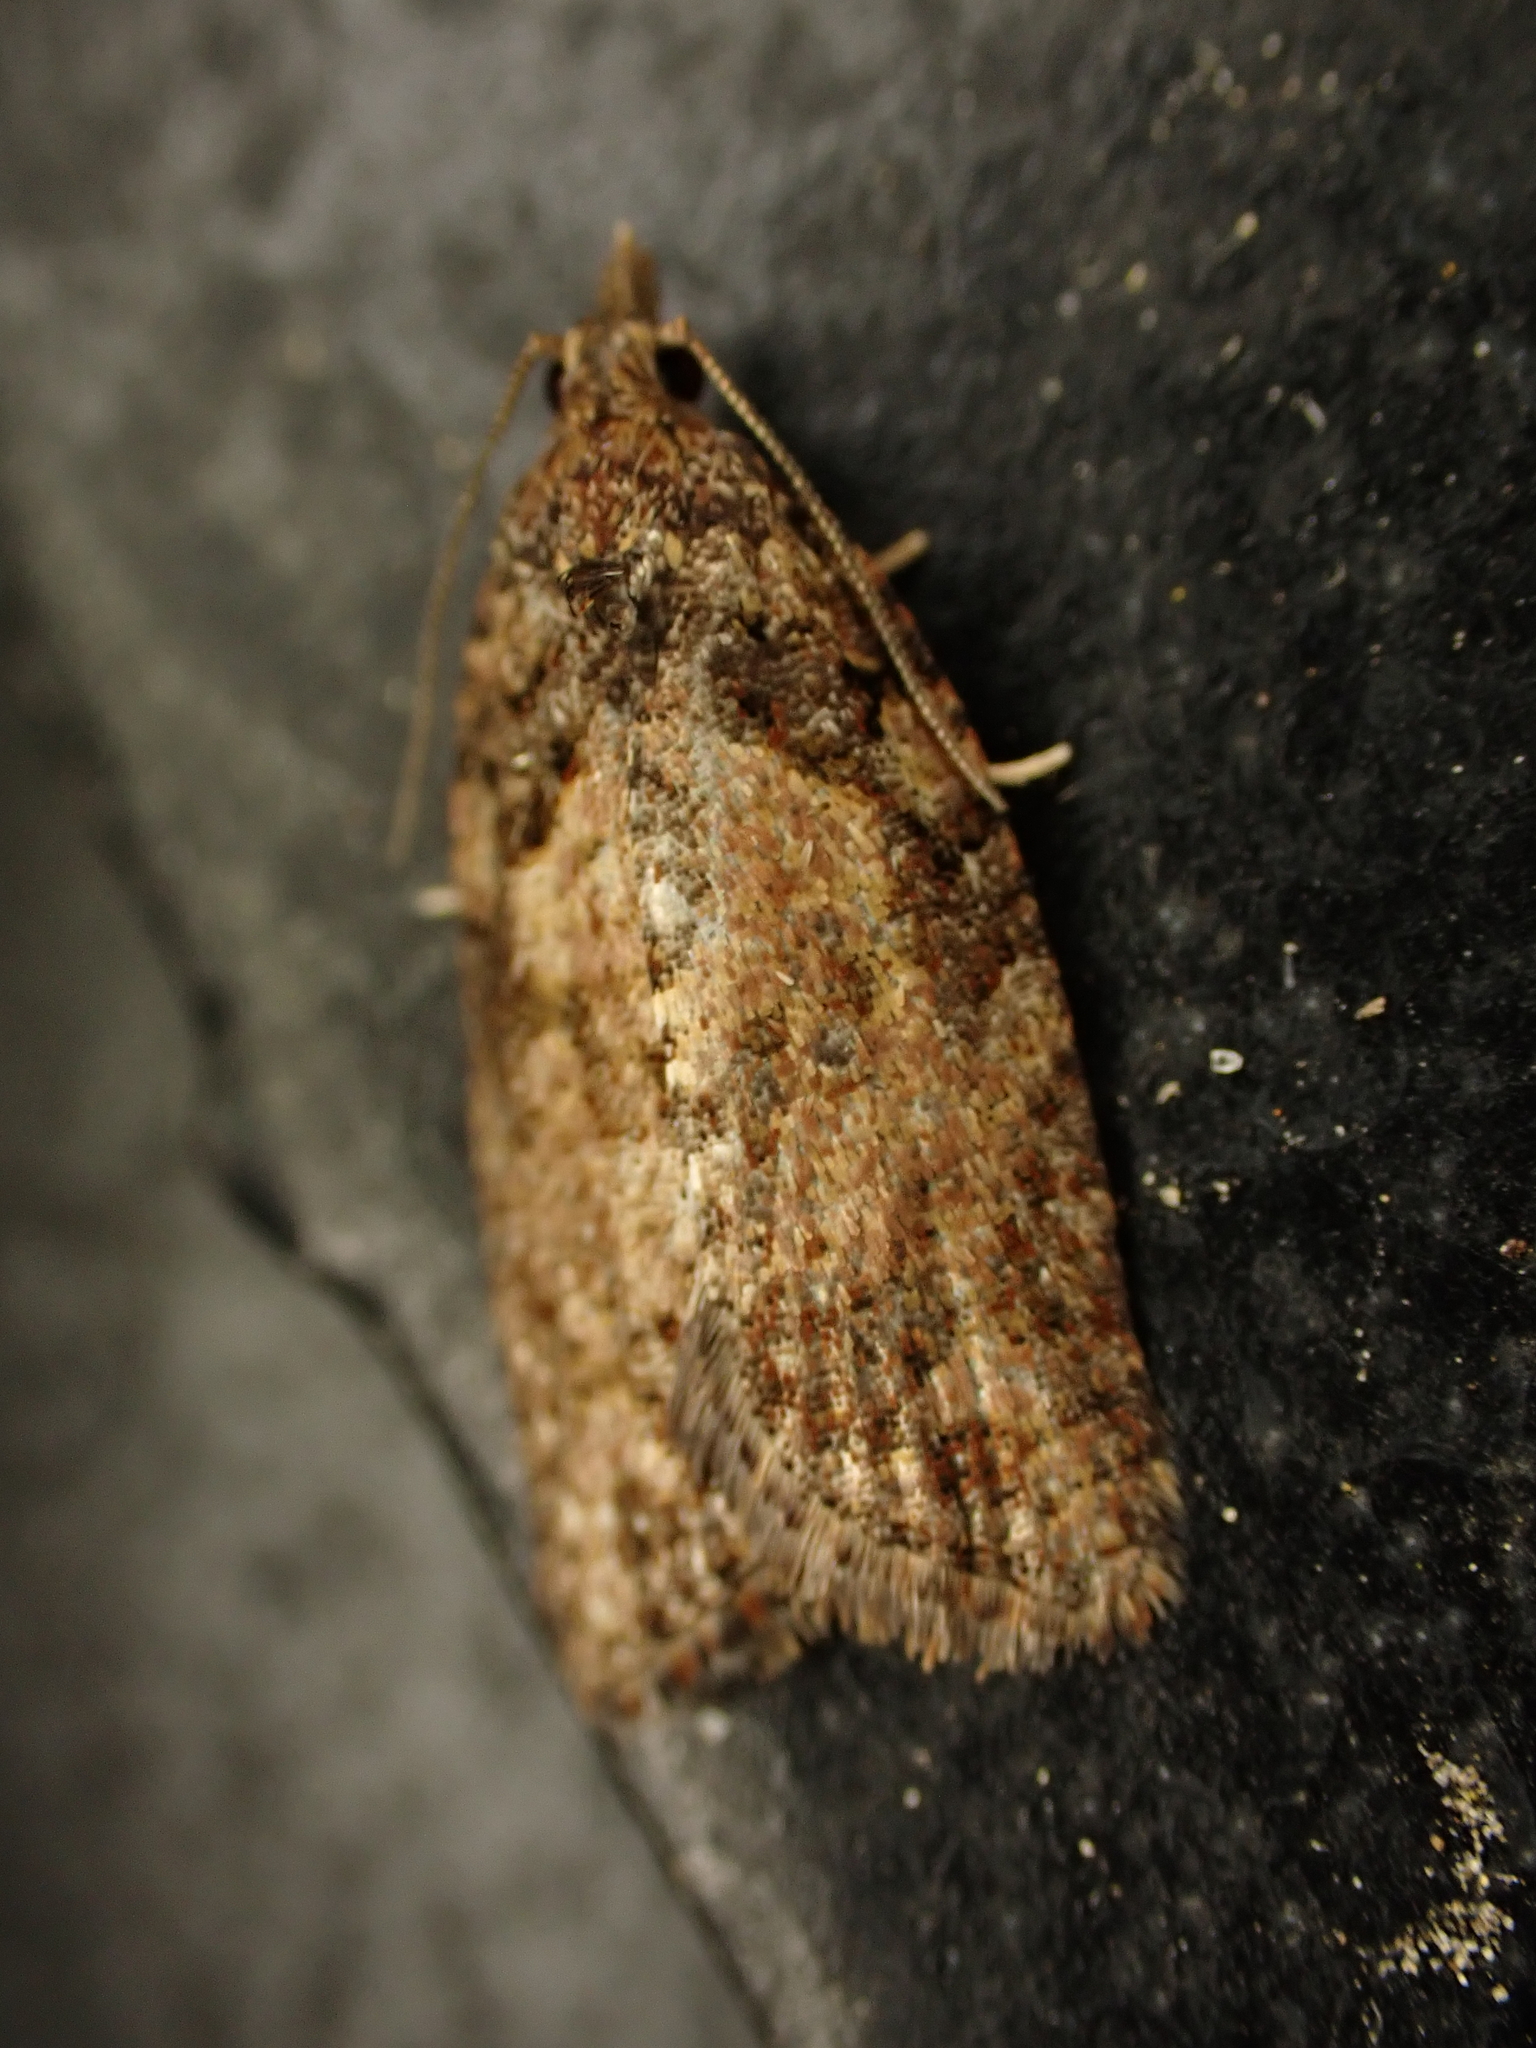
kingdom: Animalia
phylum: Arthropoda
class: Insecta
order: Lepidoptera
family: Tortricidae
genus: Capua
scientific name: Capua intractana
